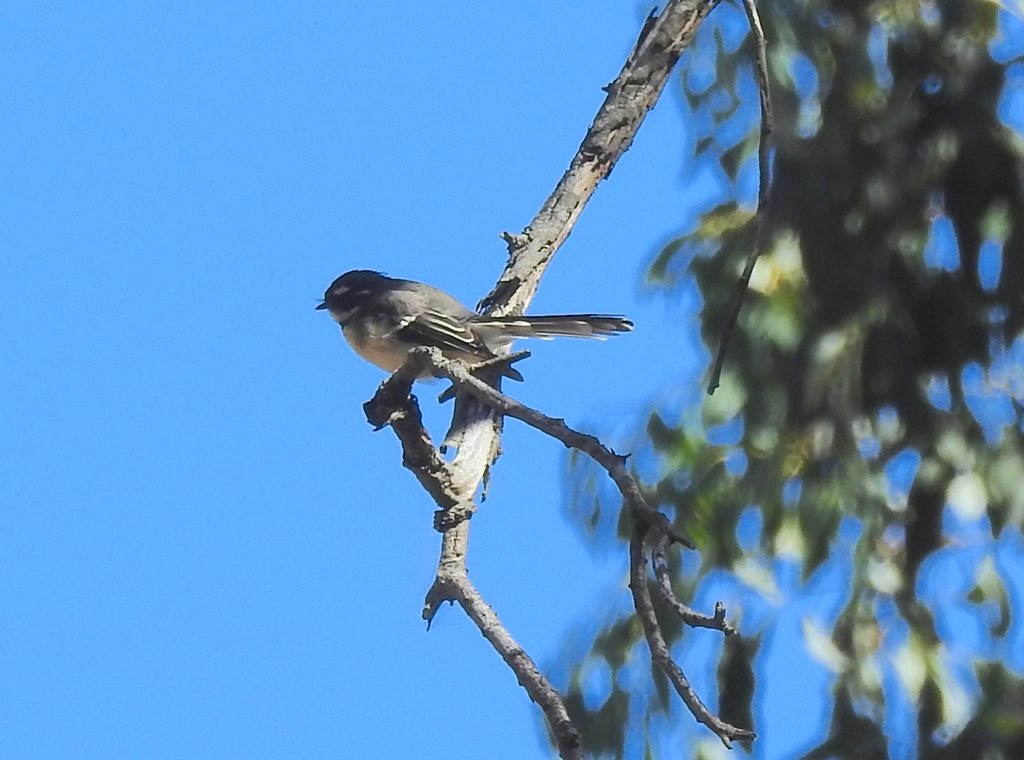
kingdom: Animalia
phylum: Chordata
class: Aves
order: Passeriformes
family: Rhipiduridae
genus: Rhipidura
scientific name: Rhipidura albiscapa
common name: Grey fantail
